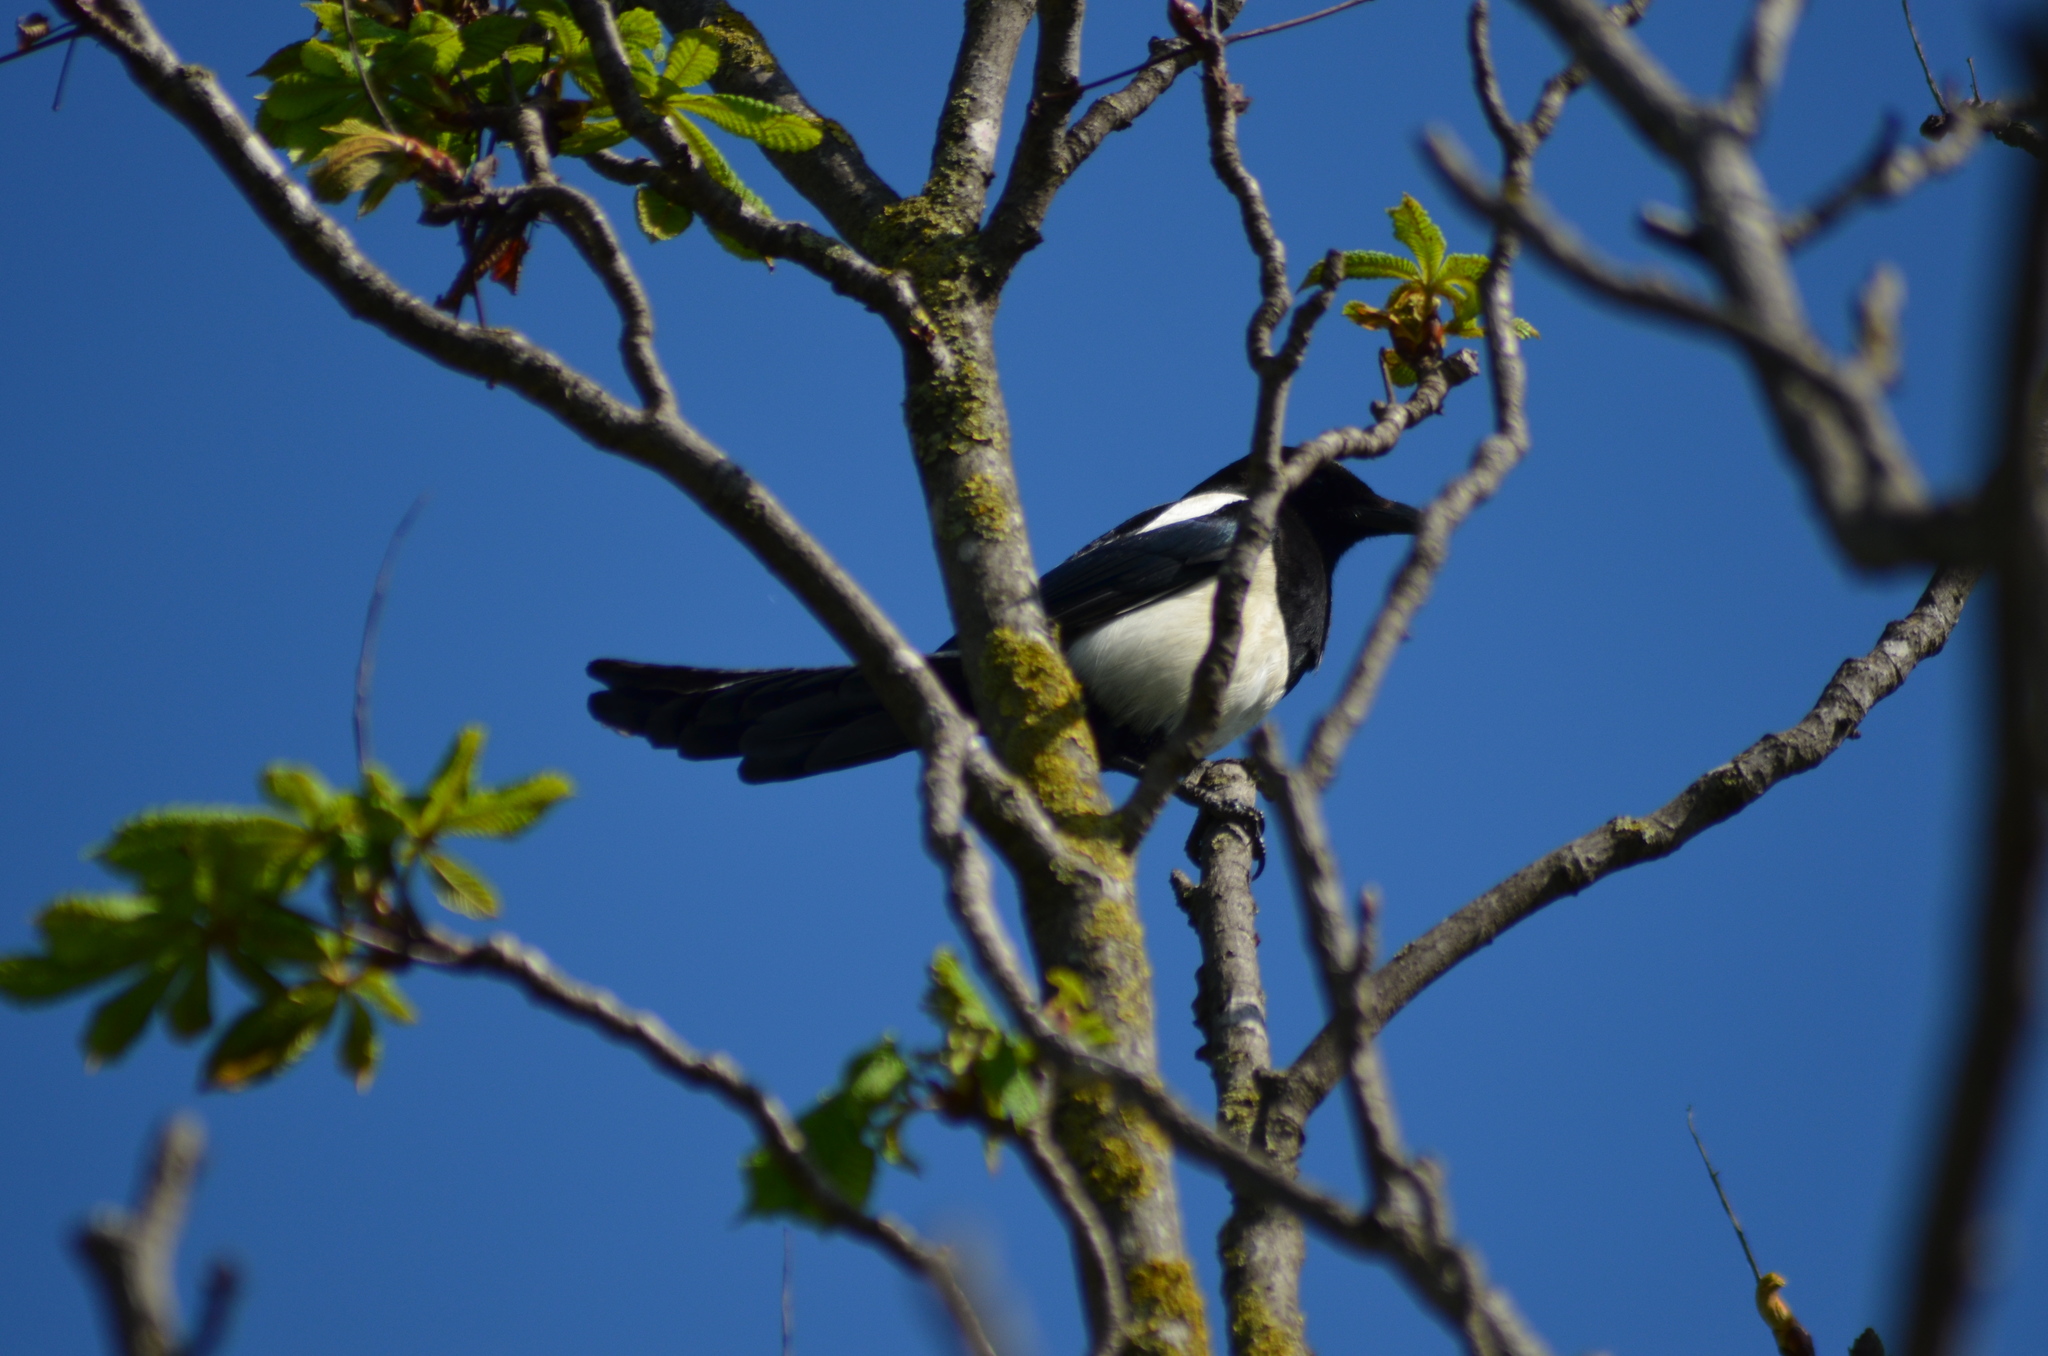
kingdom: Animalia
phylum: Chordata
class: Aves
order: Passeriformes
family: Corvidae
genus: Pica
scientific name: Pica pica
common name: Eurasian magpie
